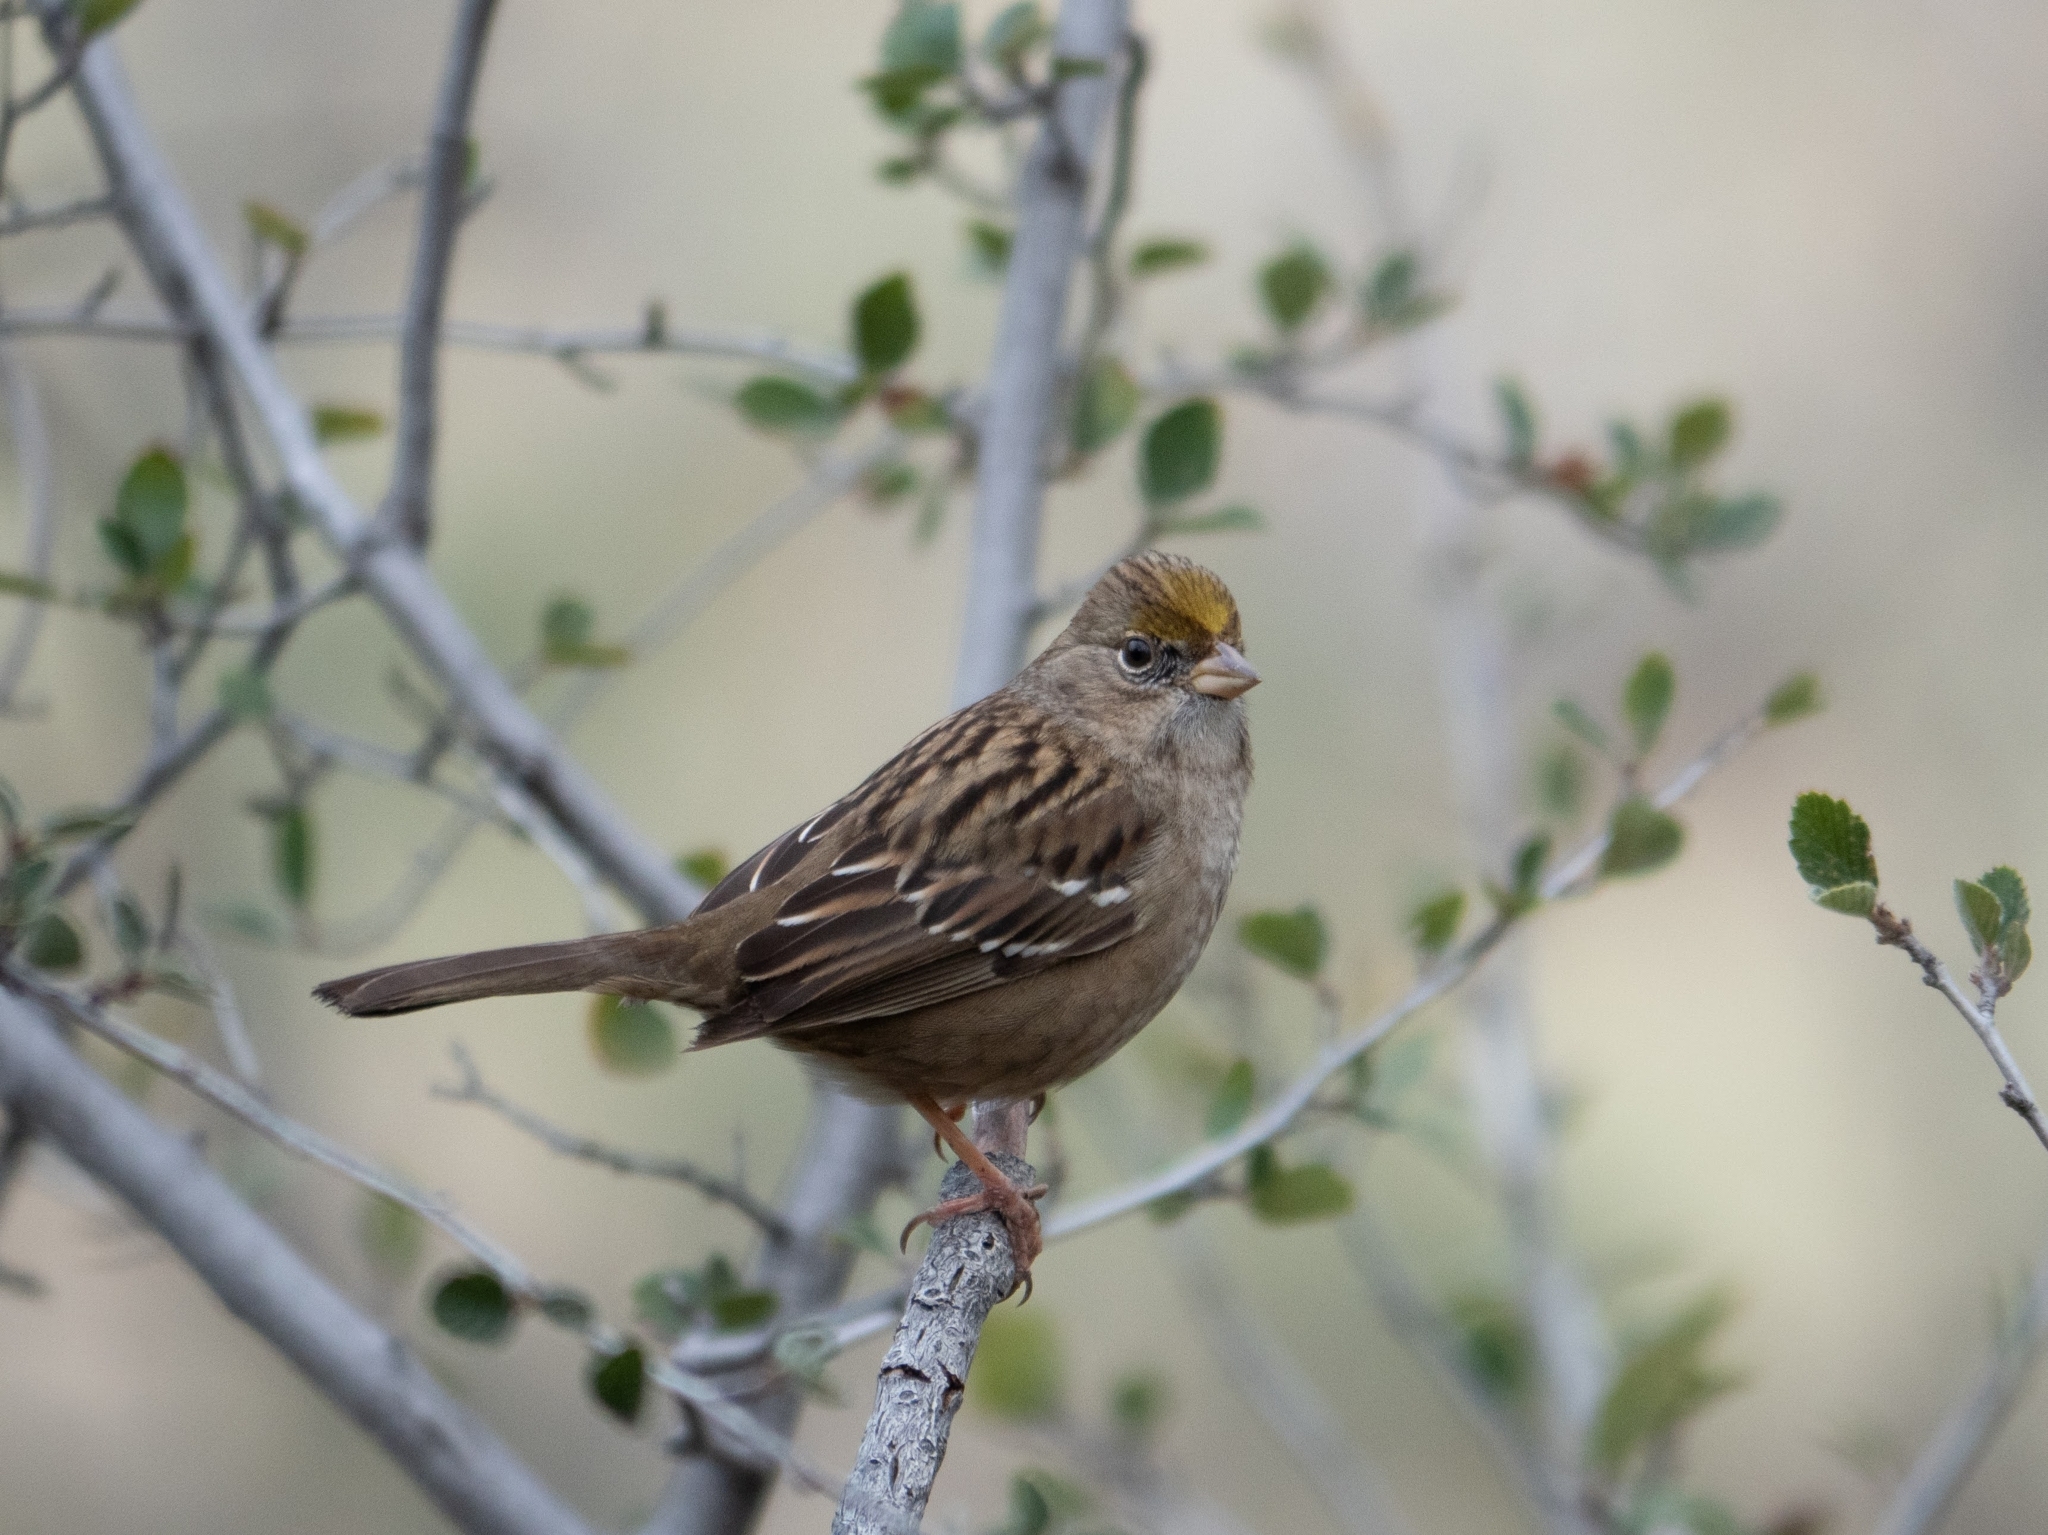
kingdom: Animalia
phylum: Chordata
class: Aves
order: Passeriformes
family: Passerellidae
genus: Zonotrichia
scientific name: Zonotrichia atricapilla
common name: Golden-crowned sparrow
